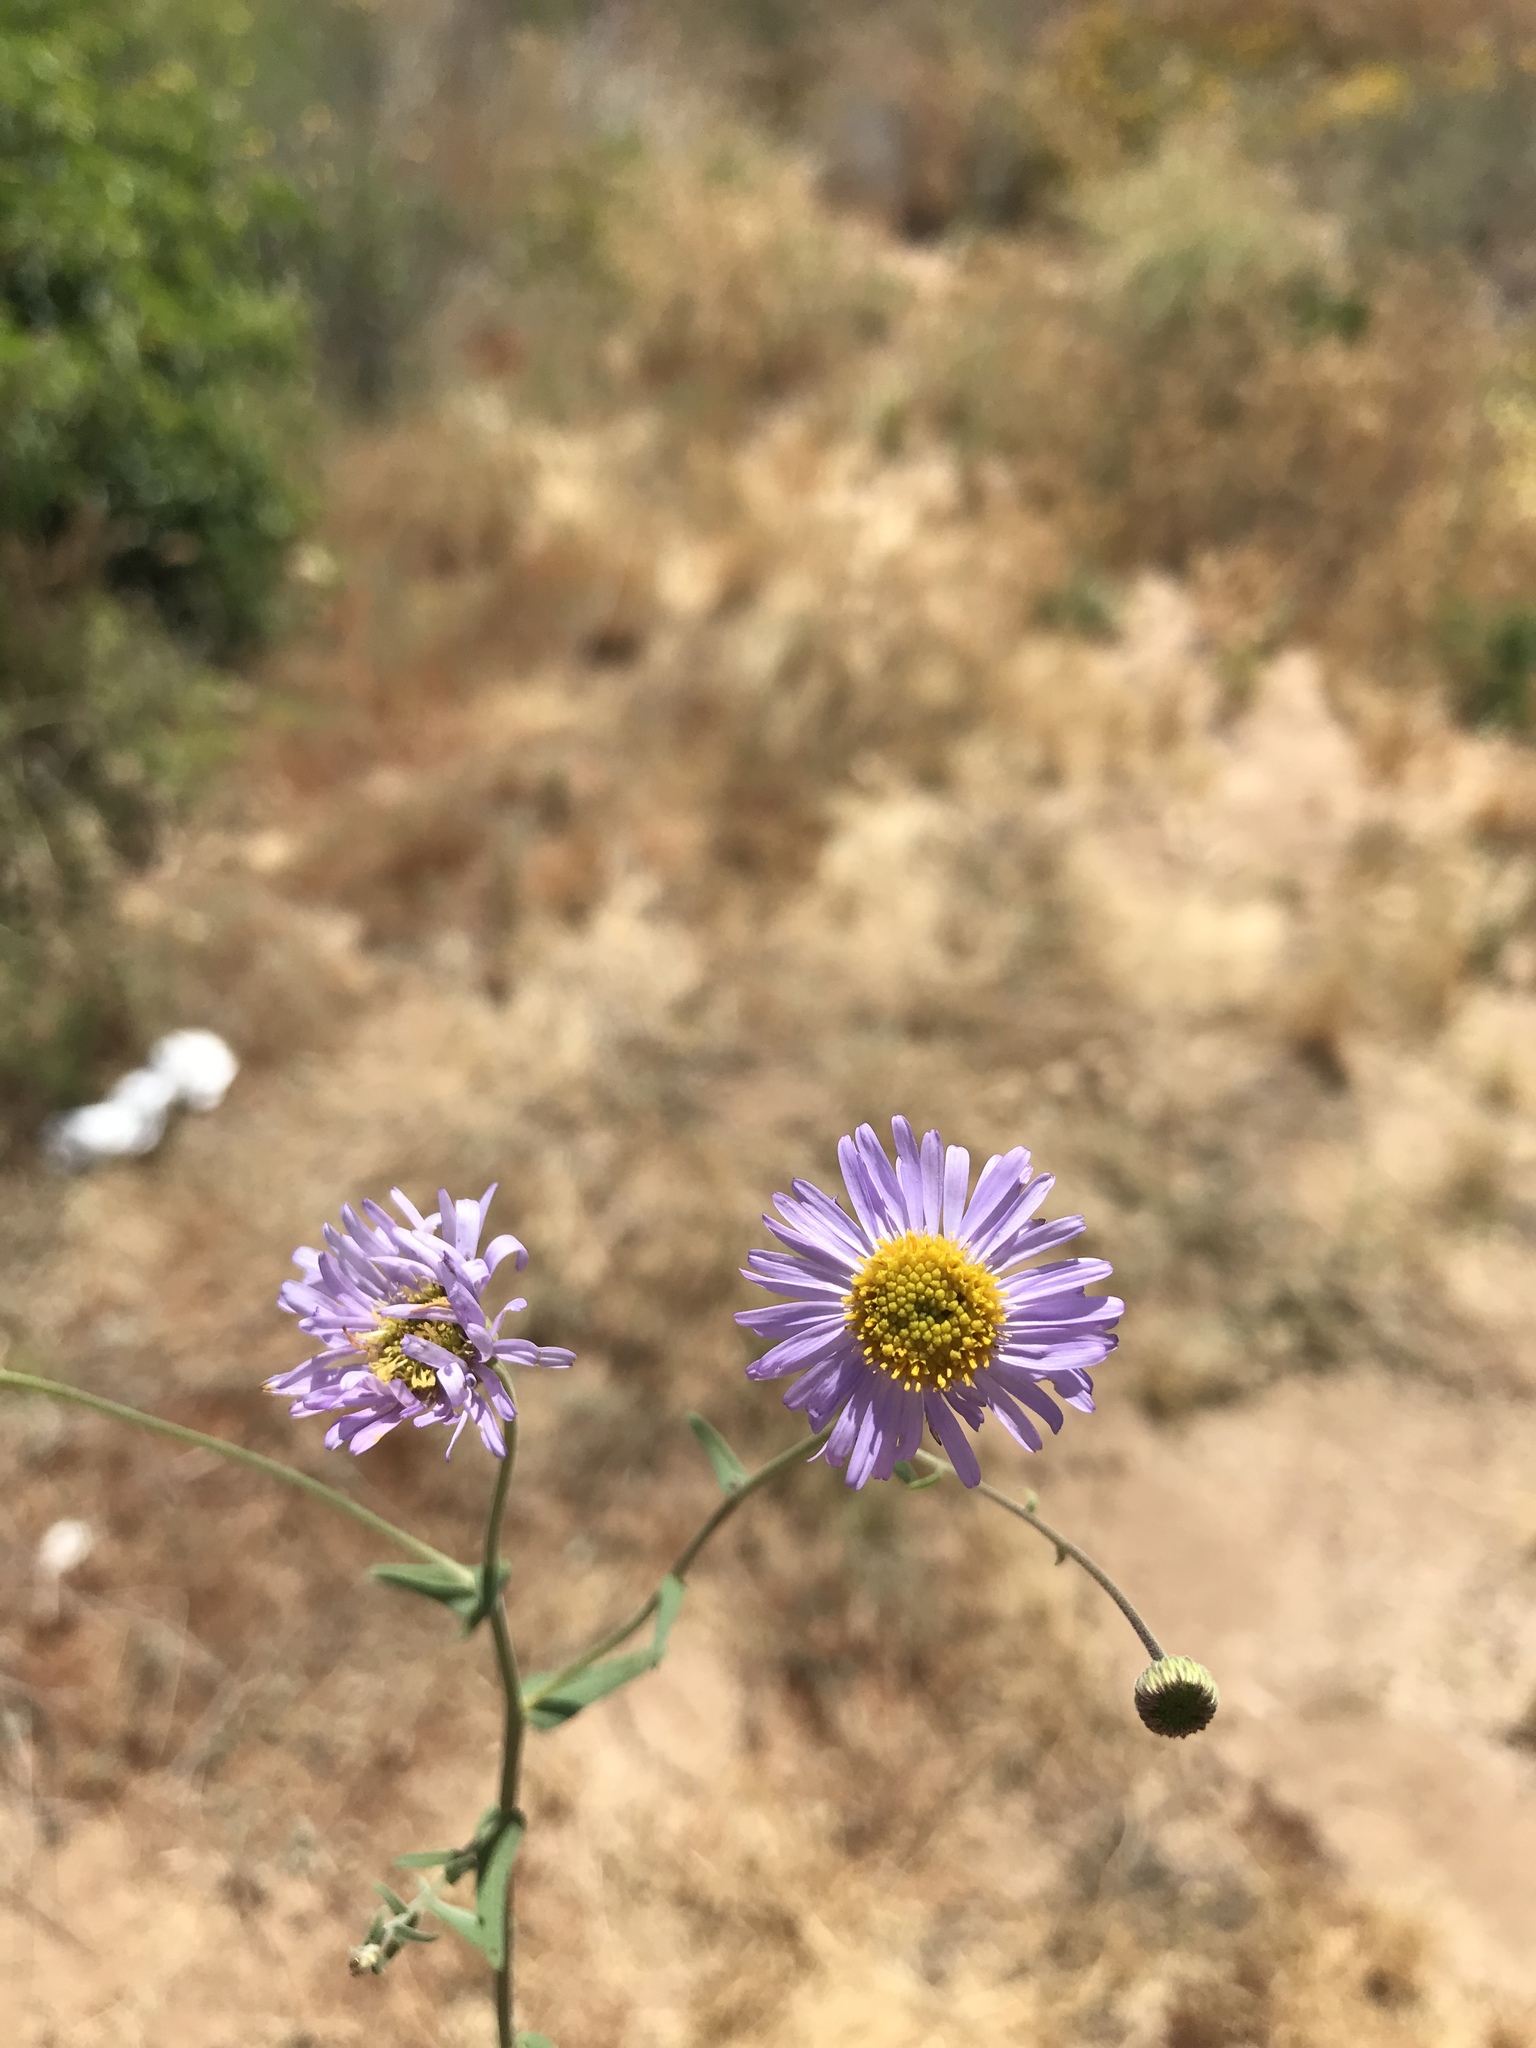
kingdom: Plantae
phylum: Tracheophyta
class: Magnoliopsida
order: Asterales
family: Asteraceae
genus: Erigeron
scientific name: Erigeron breweri
